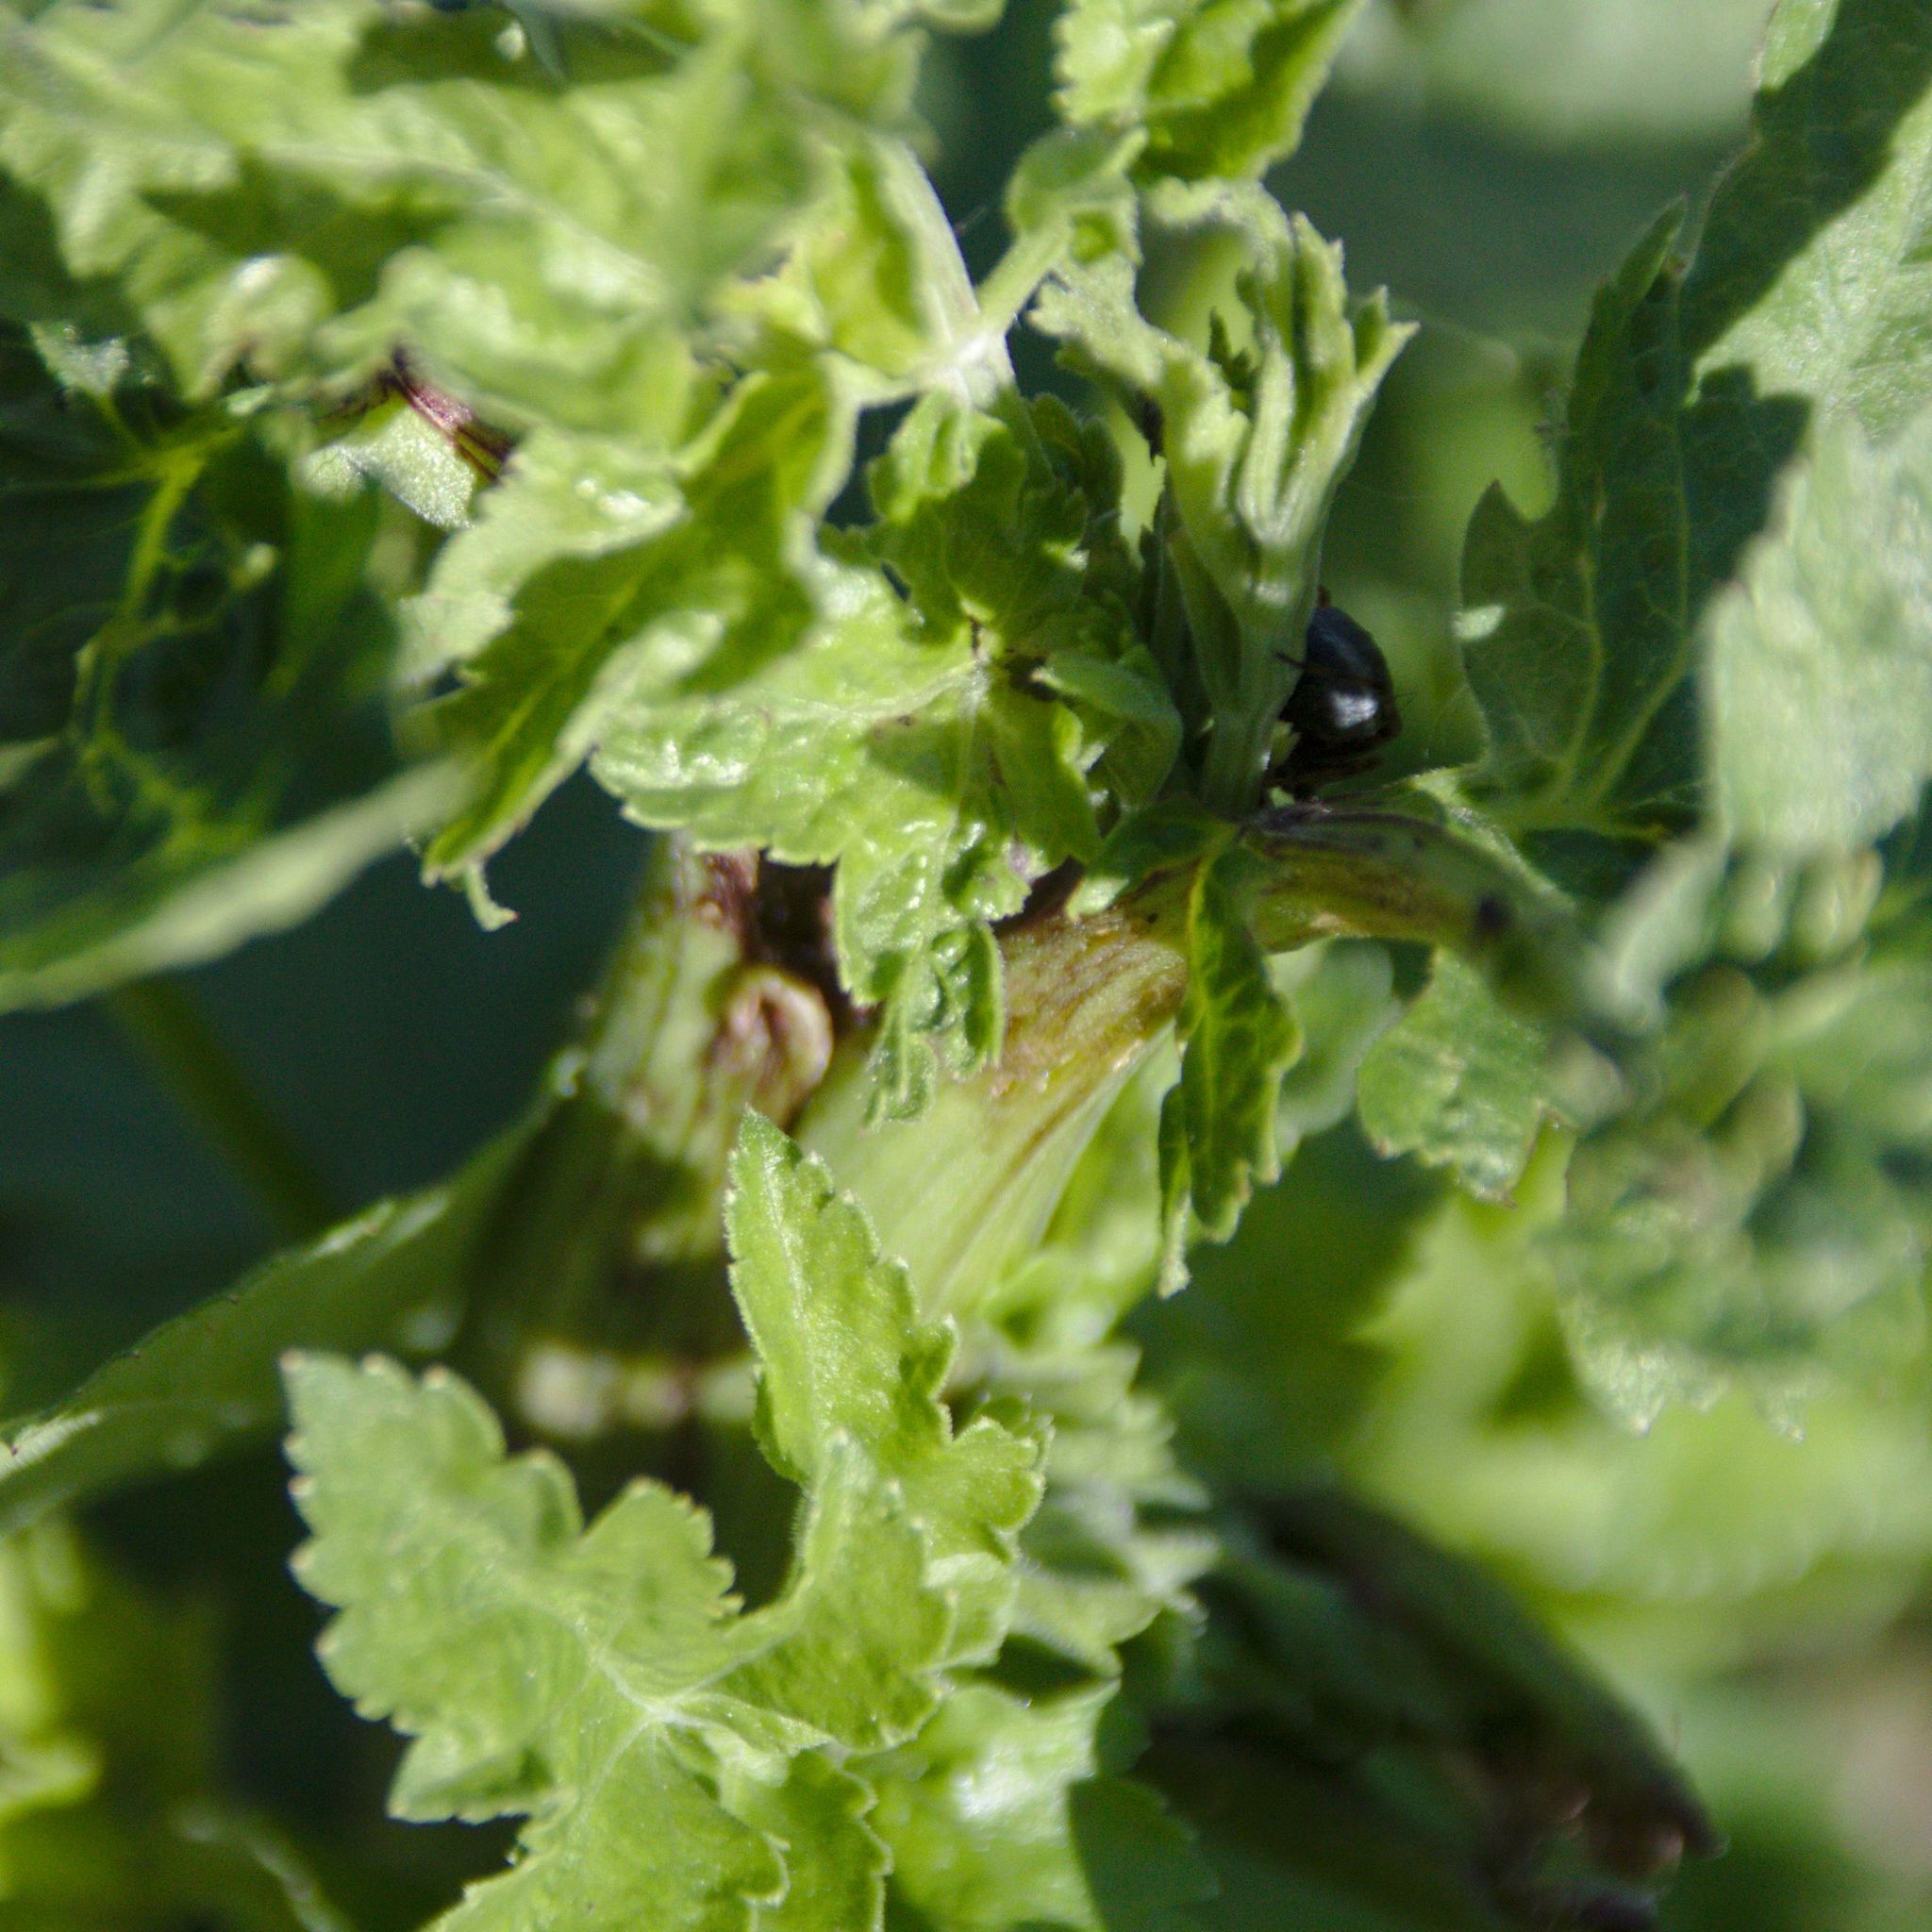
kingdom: Plantae
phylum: Tracheophyta
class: Magnoliopsida
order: Apiales
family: Apiaceae
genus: Pastinaca
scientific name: Pastinaca sativa
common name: Wild parsnip
